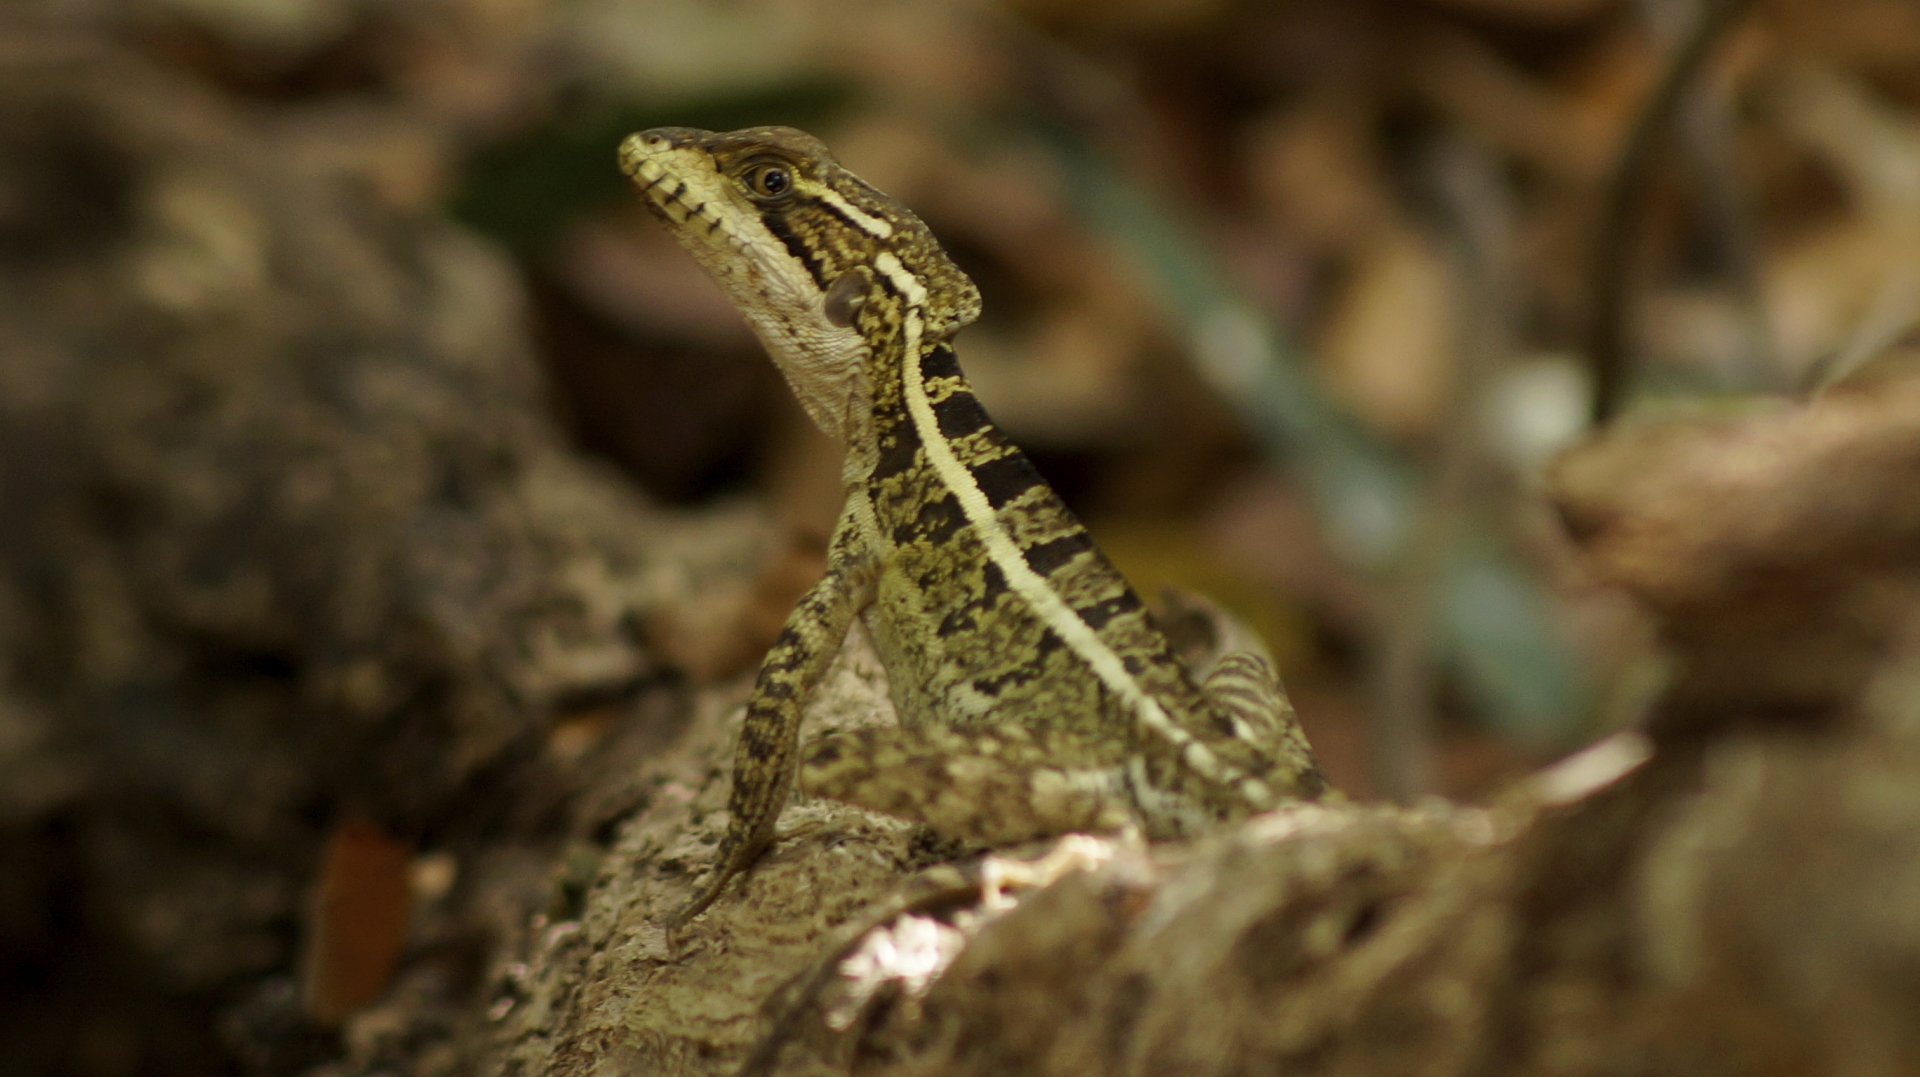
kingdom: Animalia
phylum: Chordata
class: Squamata
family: Corytophanidae
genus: Basiliscus
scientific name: Basiliscus vittatus
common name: Brown basilisk
